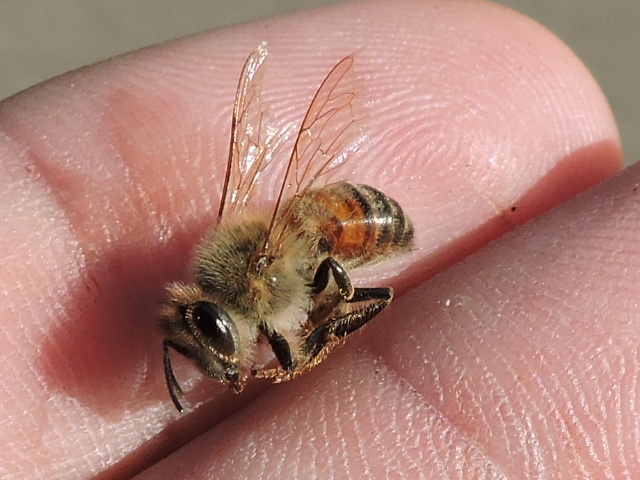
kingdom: Animalia
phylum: Arthropoda
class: Insecta
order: Hymenoptera
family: Apidae
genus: Apis
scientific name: Apis mellifera
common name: Honey bee
